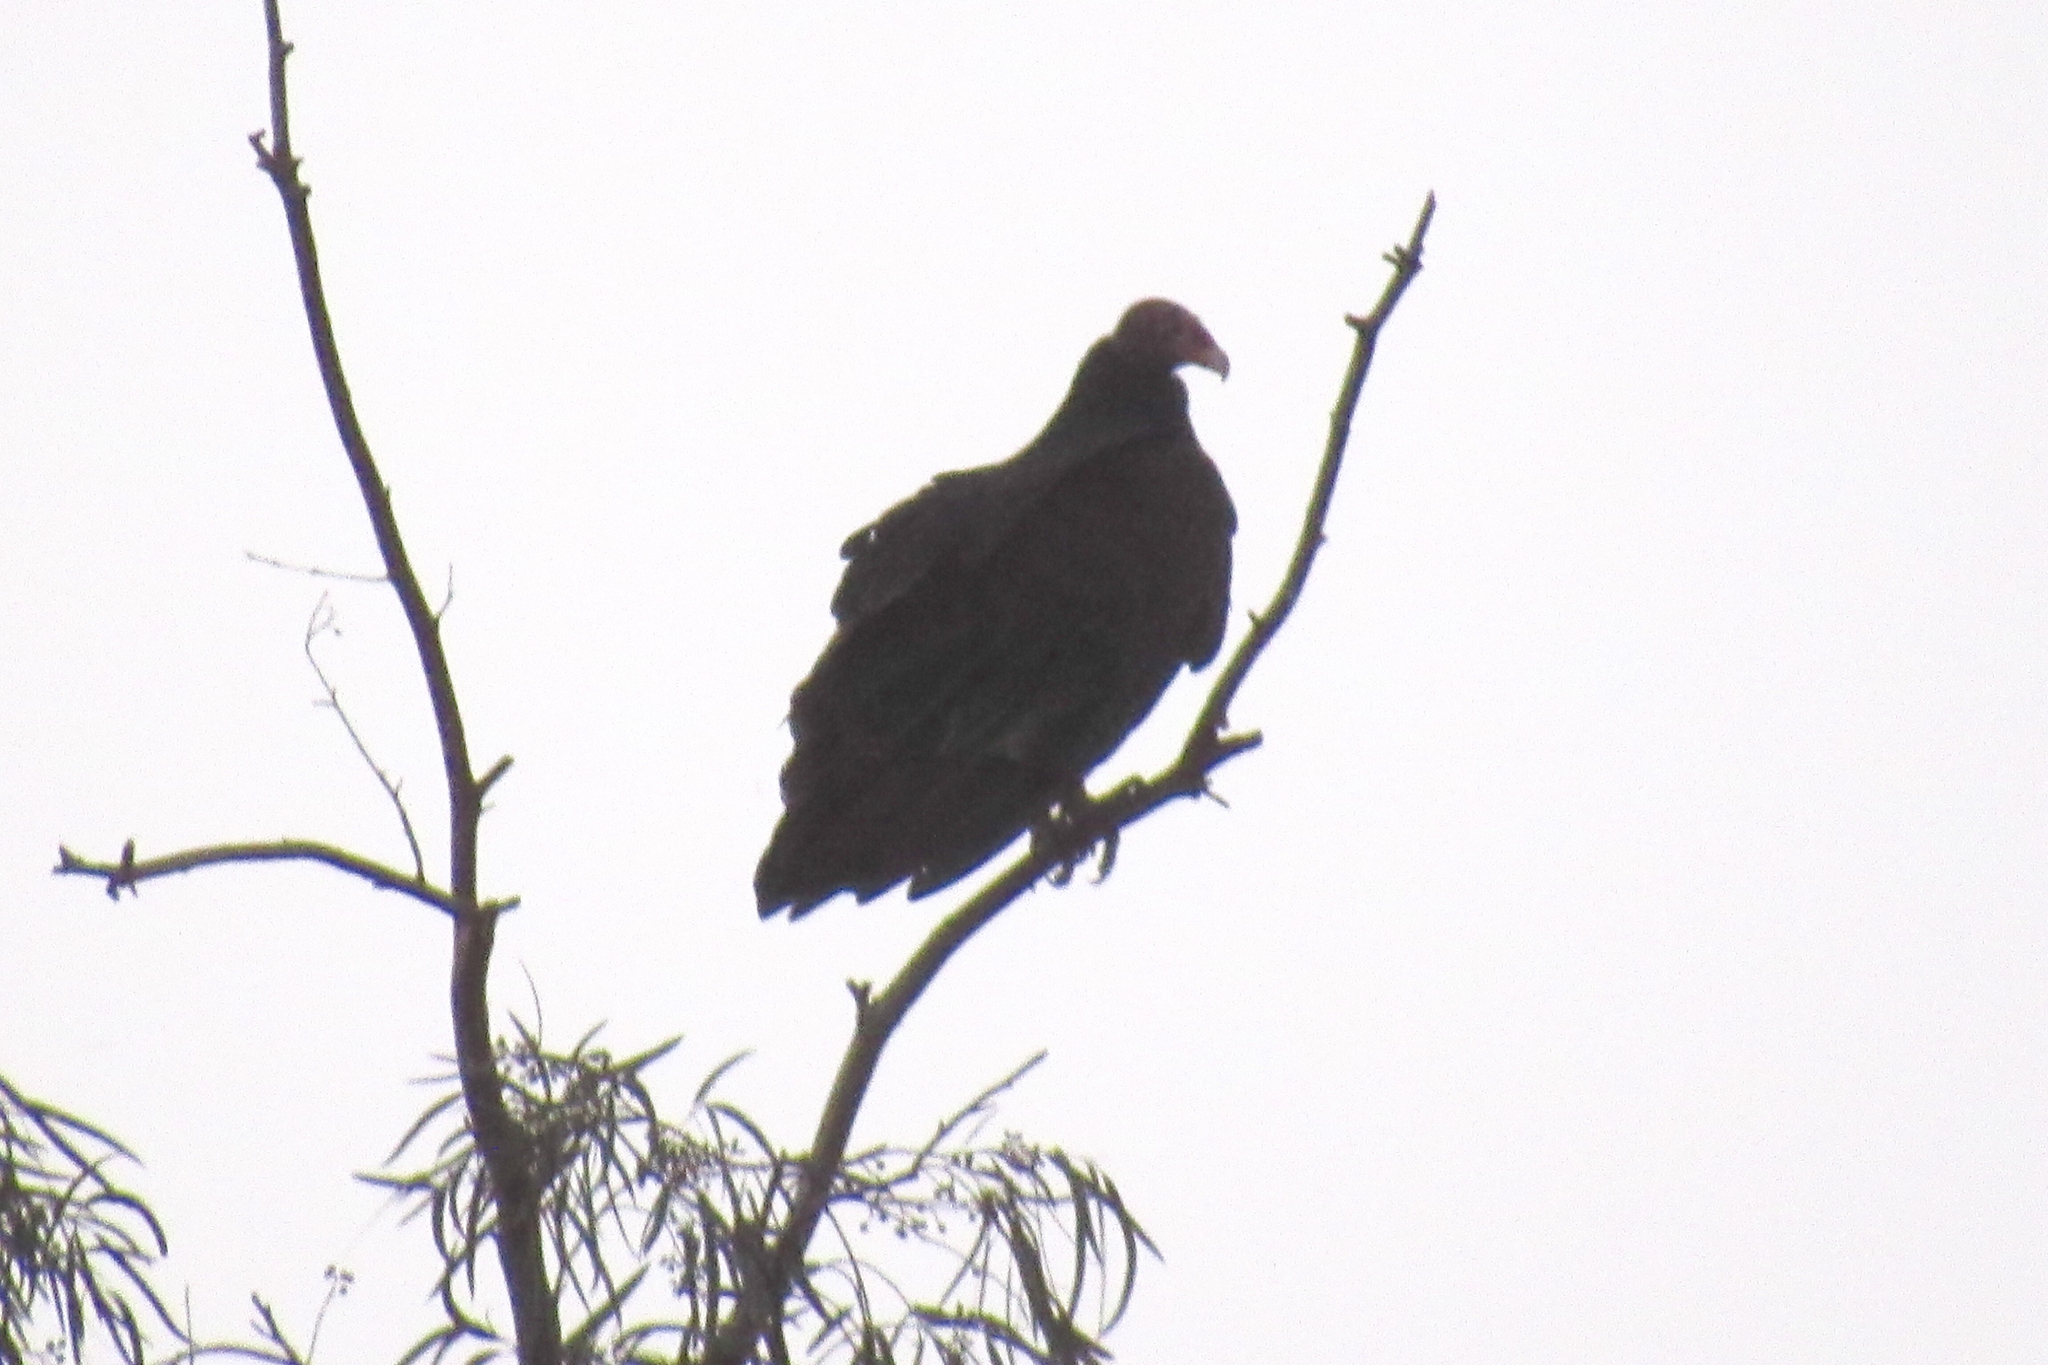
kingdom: Animalia
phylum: Chordata
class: Aves
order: Accipitriformes
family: Cathartidae
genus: Cathartes
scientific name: Cathartes aura
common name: Turkey vulture
